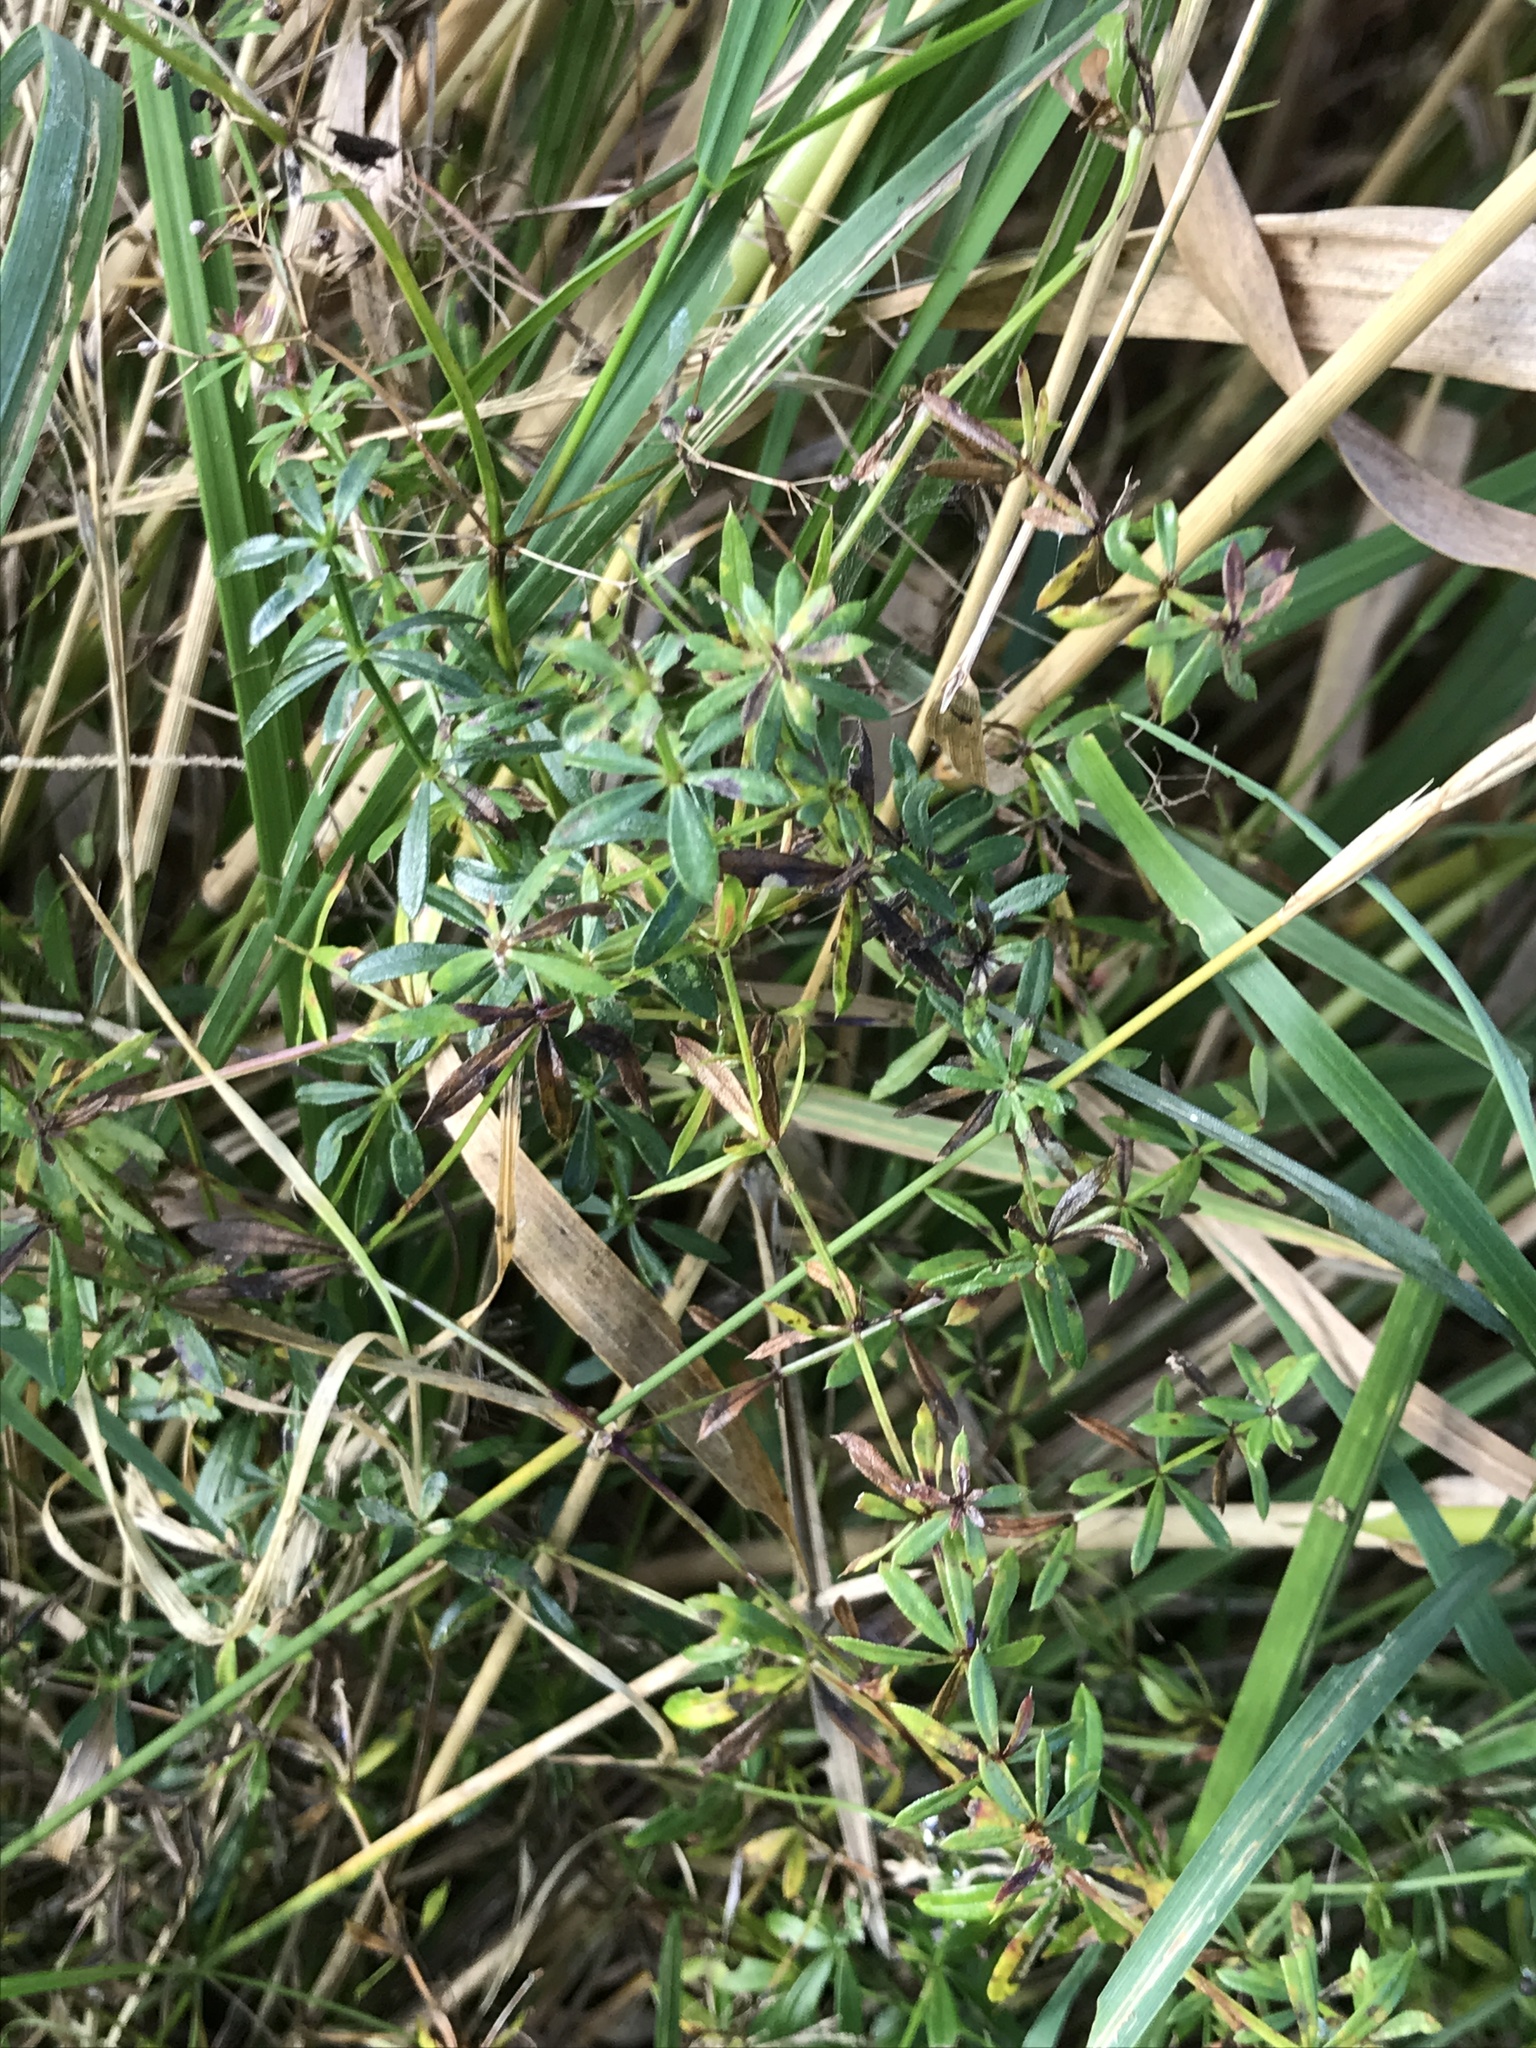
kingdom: Plantae
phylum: Tracheophyta
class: Magnoliopsida
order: Gentianales
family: Rubiaceae
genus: Galium
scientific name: Galium mollugo
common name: Hedge bedstraw
